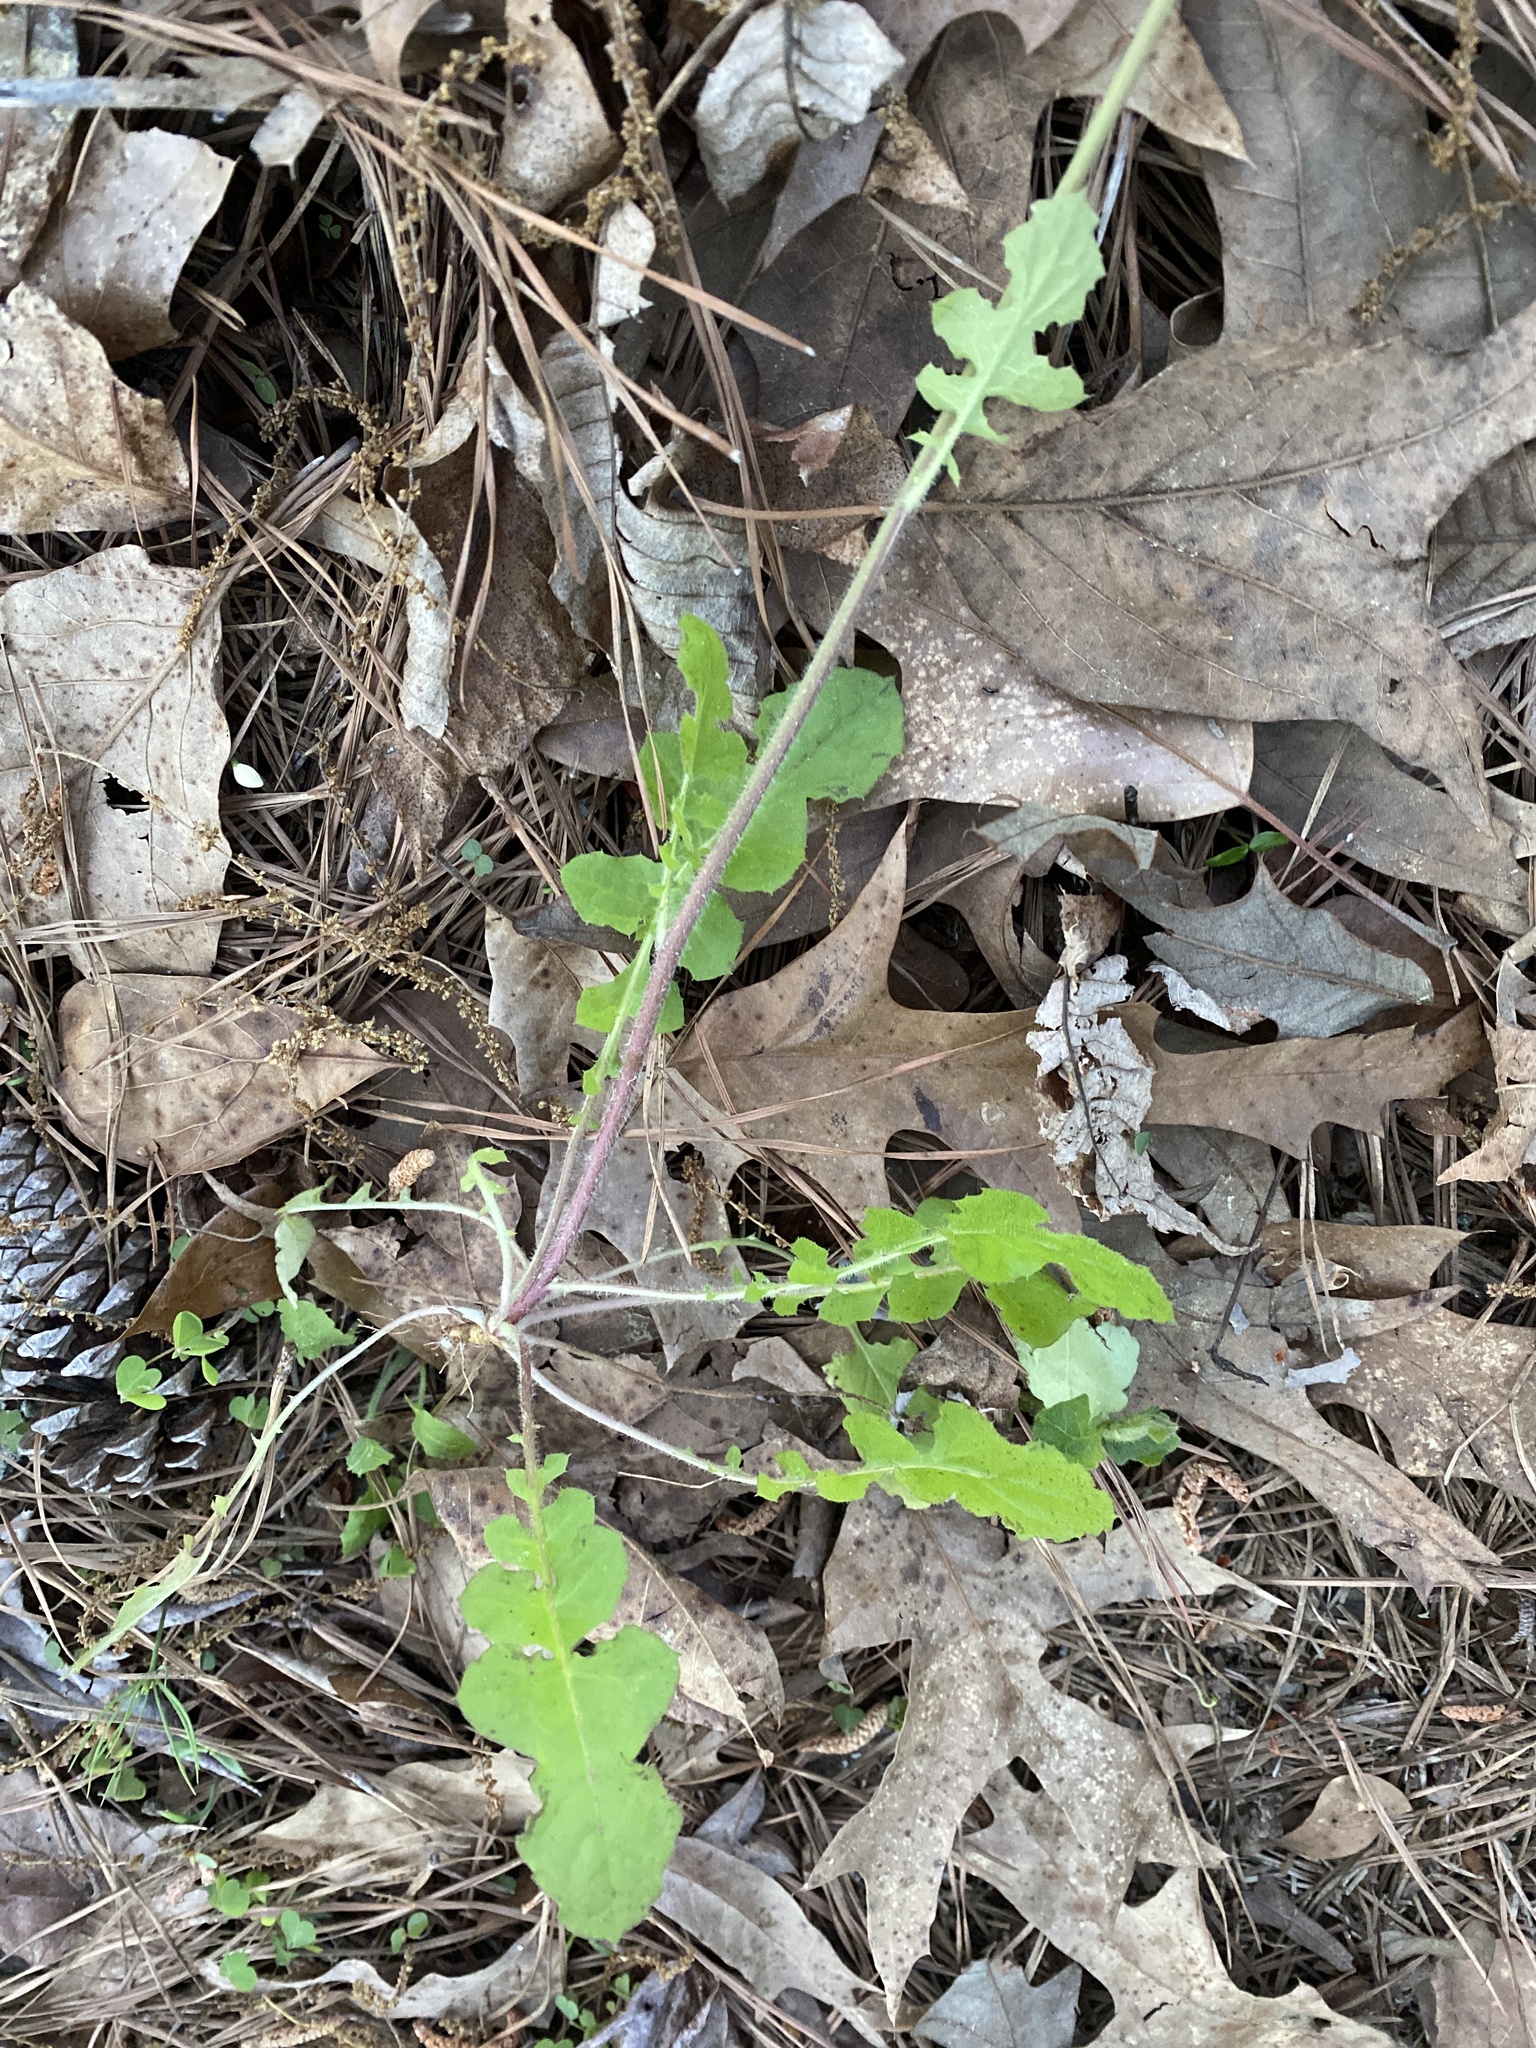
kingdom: Plantae
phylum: Tracheophyta
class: Magnoliopsida
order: Asterales
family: Asteraceae
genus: Youngia
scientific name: Youngia japonica
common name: Oriental false hawksbeard
